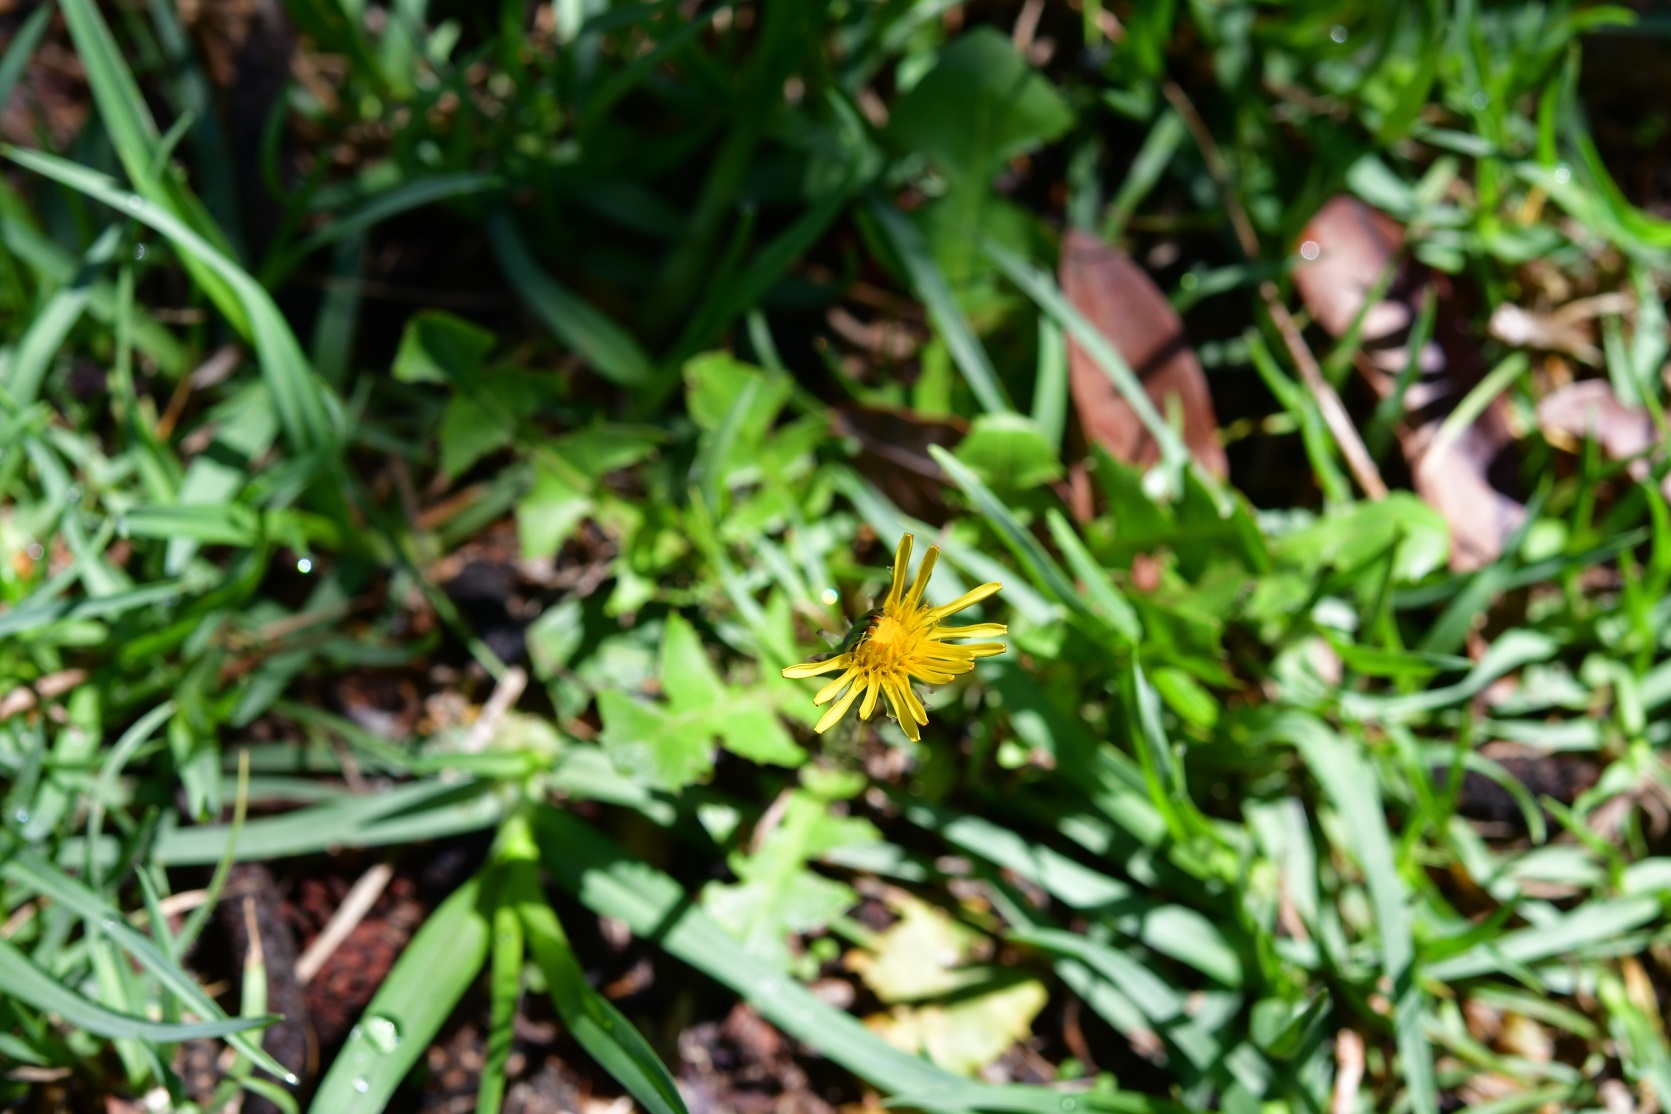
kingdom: Plantae
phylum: Tracheophyta
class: Magnoliopsida
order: Asterales
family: Asteraceae
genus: Taraxacum
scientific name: Taraxacum officinale
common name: Common dandelion
